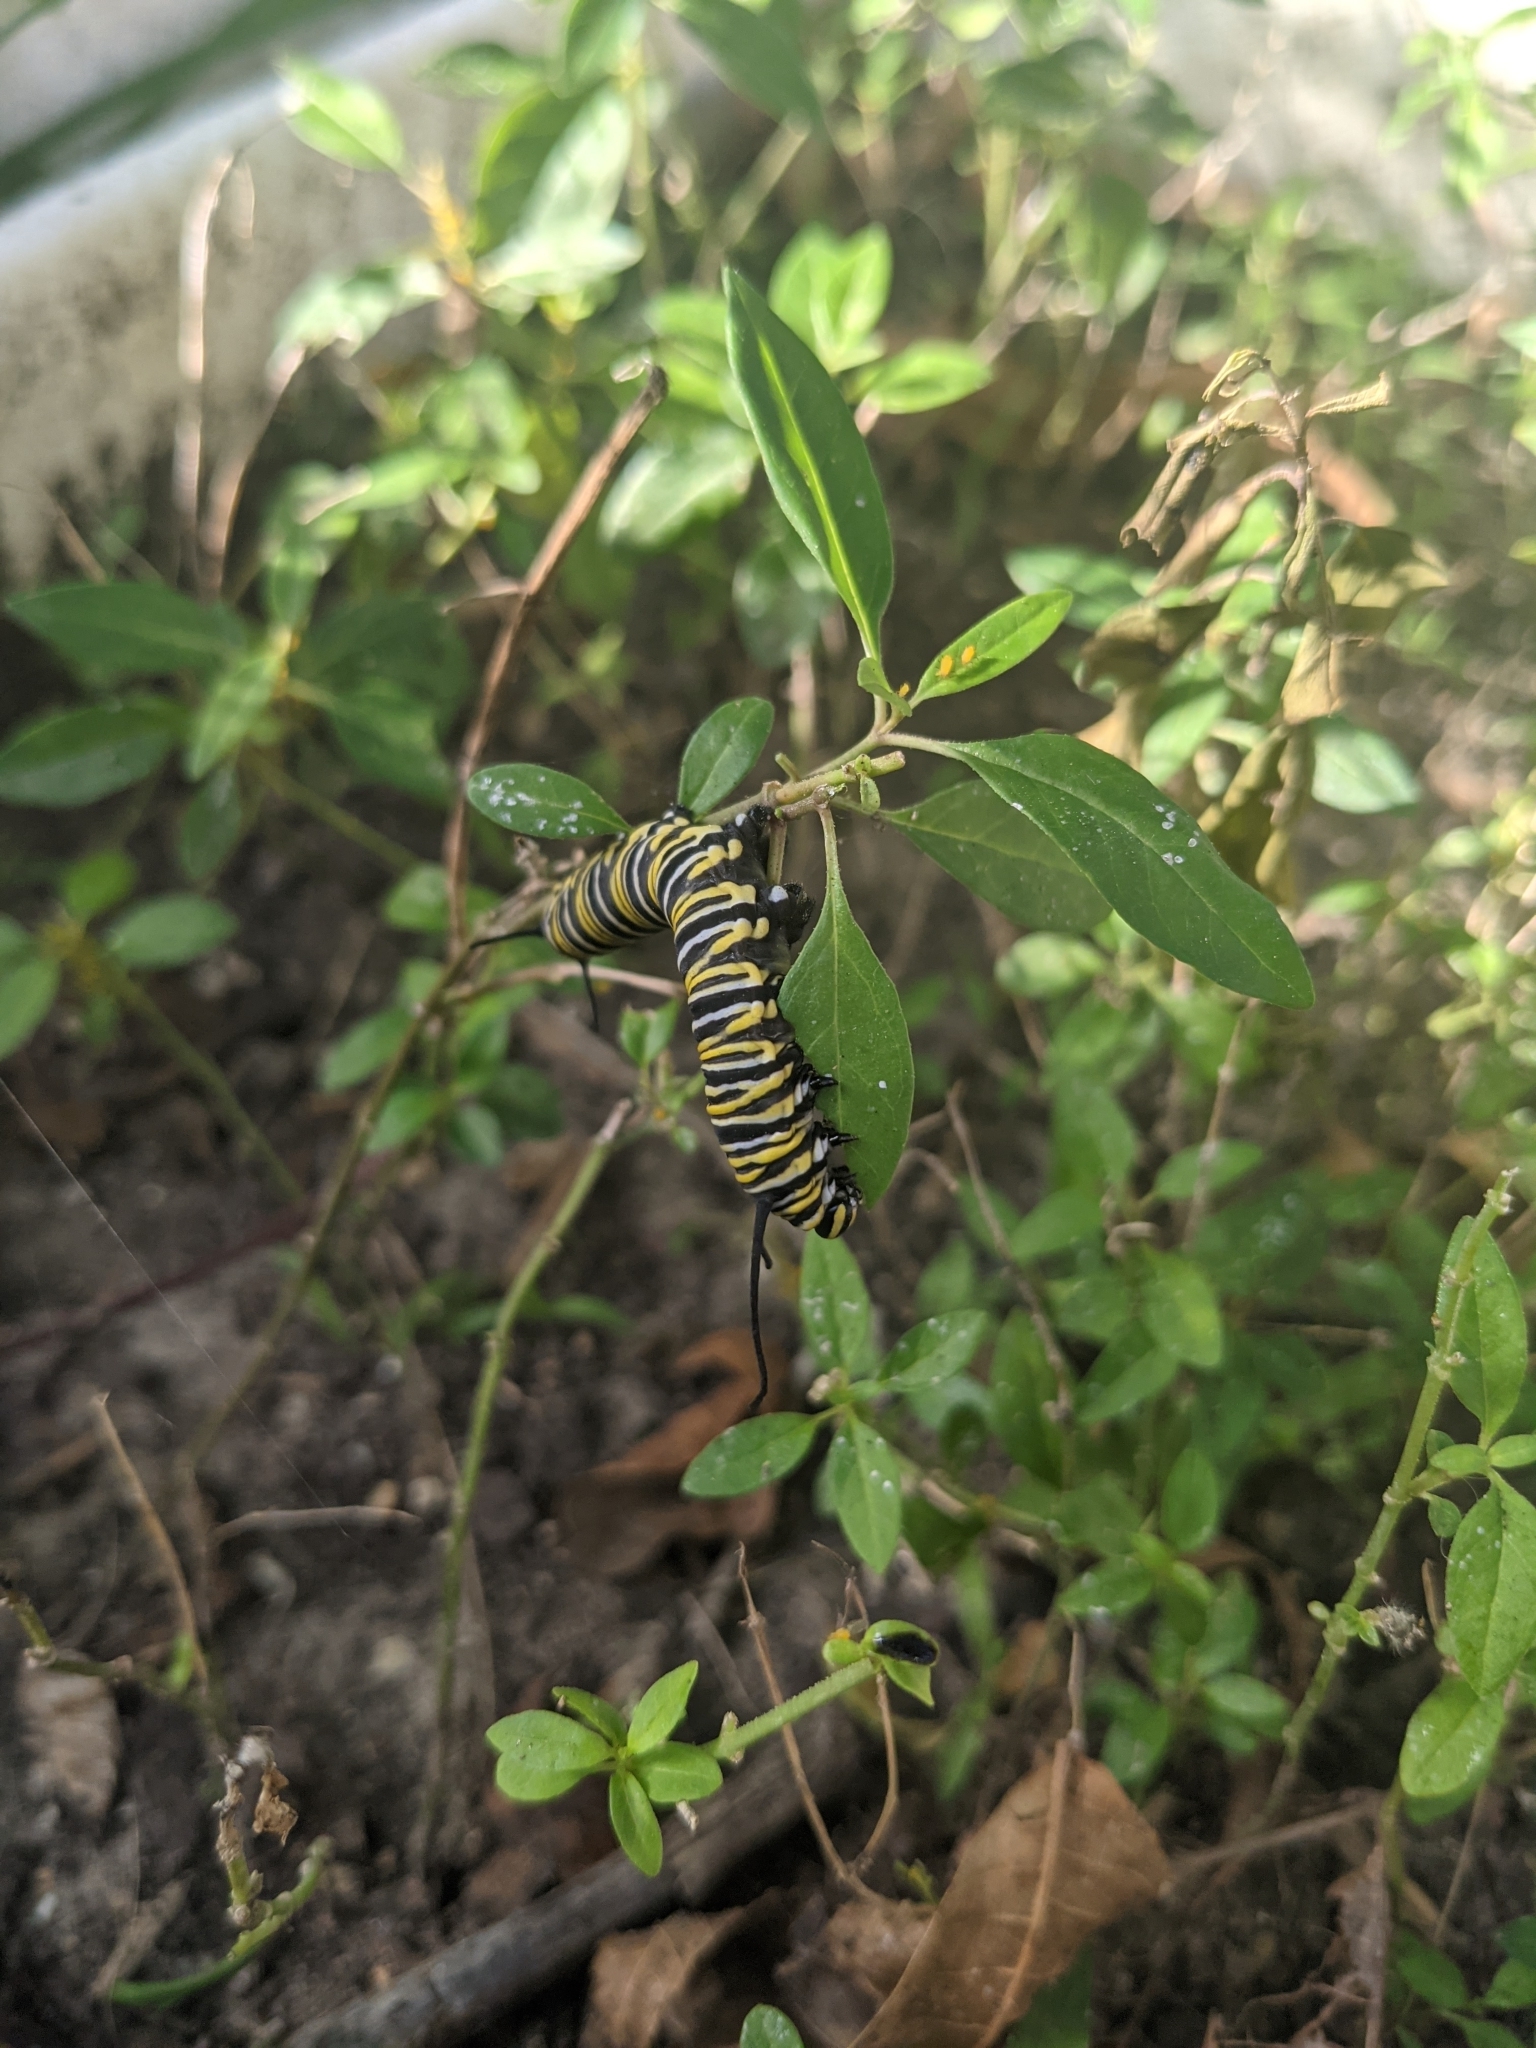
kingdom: Animalia
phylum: Arthropoda
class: Insecta
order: Lepidoptera
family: Nymphalidae
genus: Danaus
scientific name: Danaus plexippus
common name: Monarch
